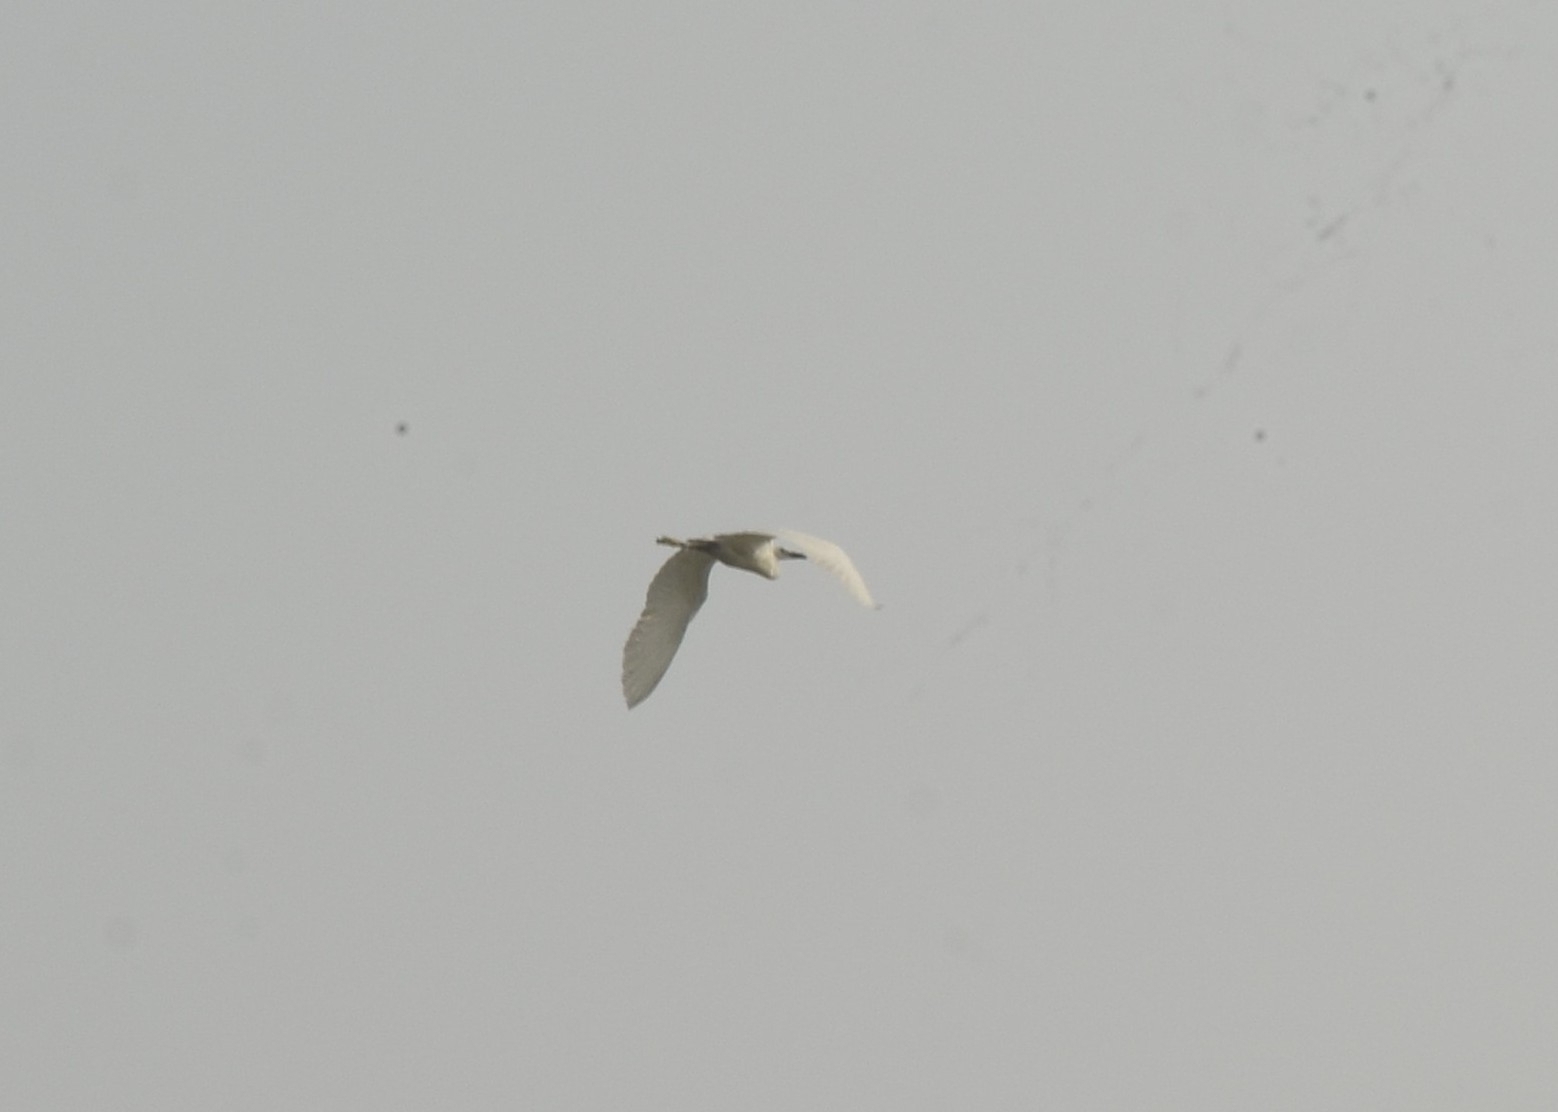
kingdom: Animalia
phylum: Chordata
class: Aves
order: Pelecaniformes
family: Ardeidae
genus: Egretta
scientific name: Egretta garzetta
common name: Little egret
